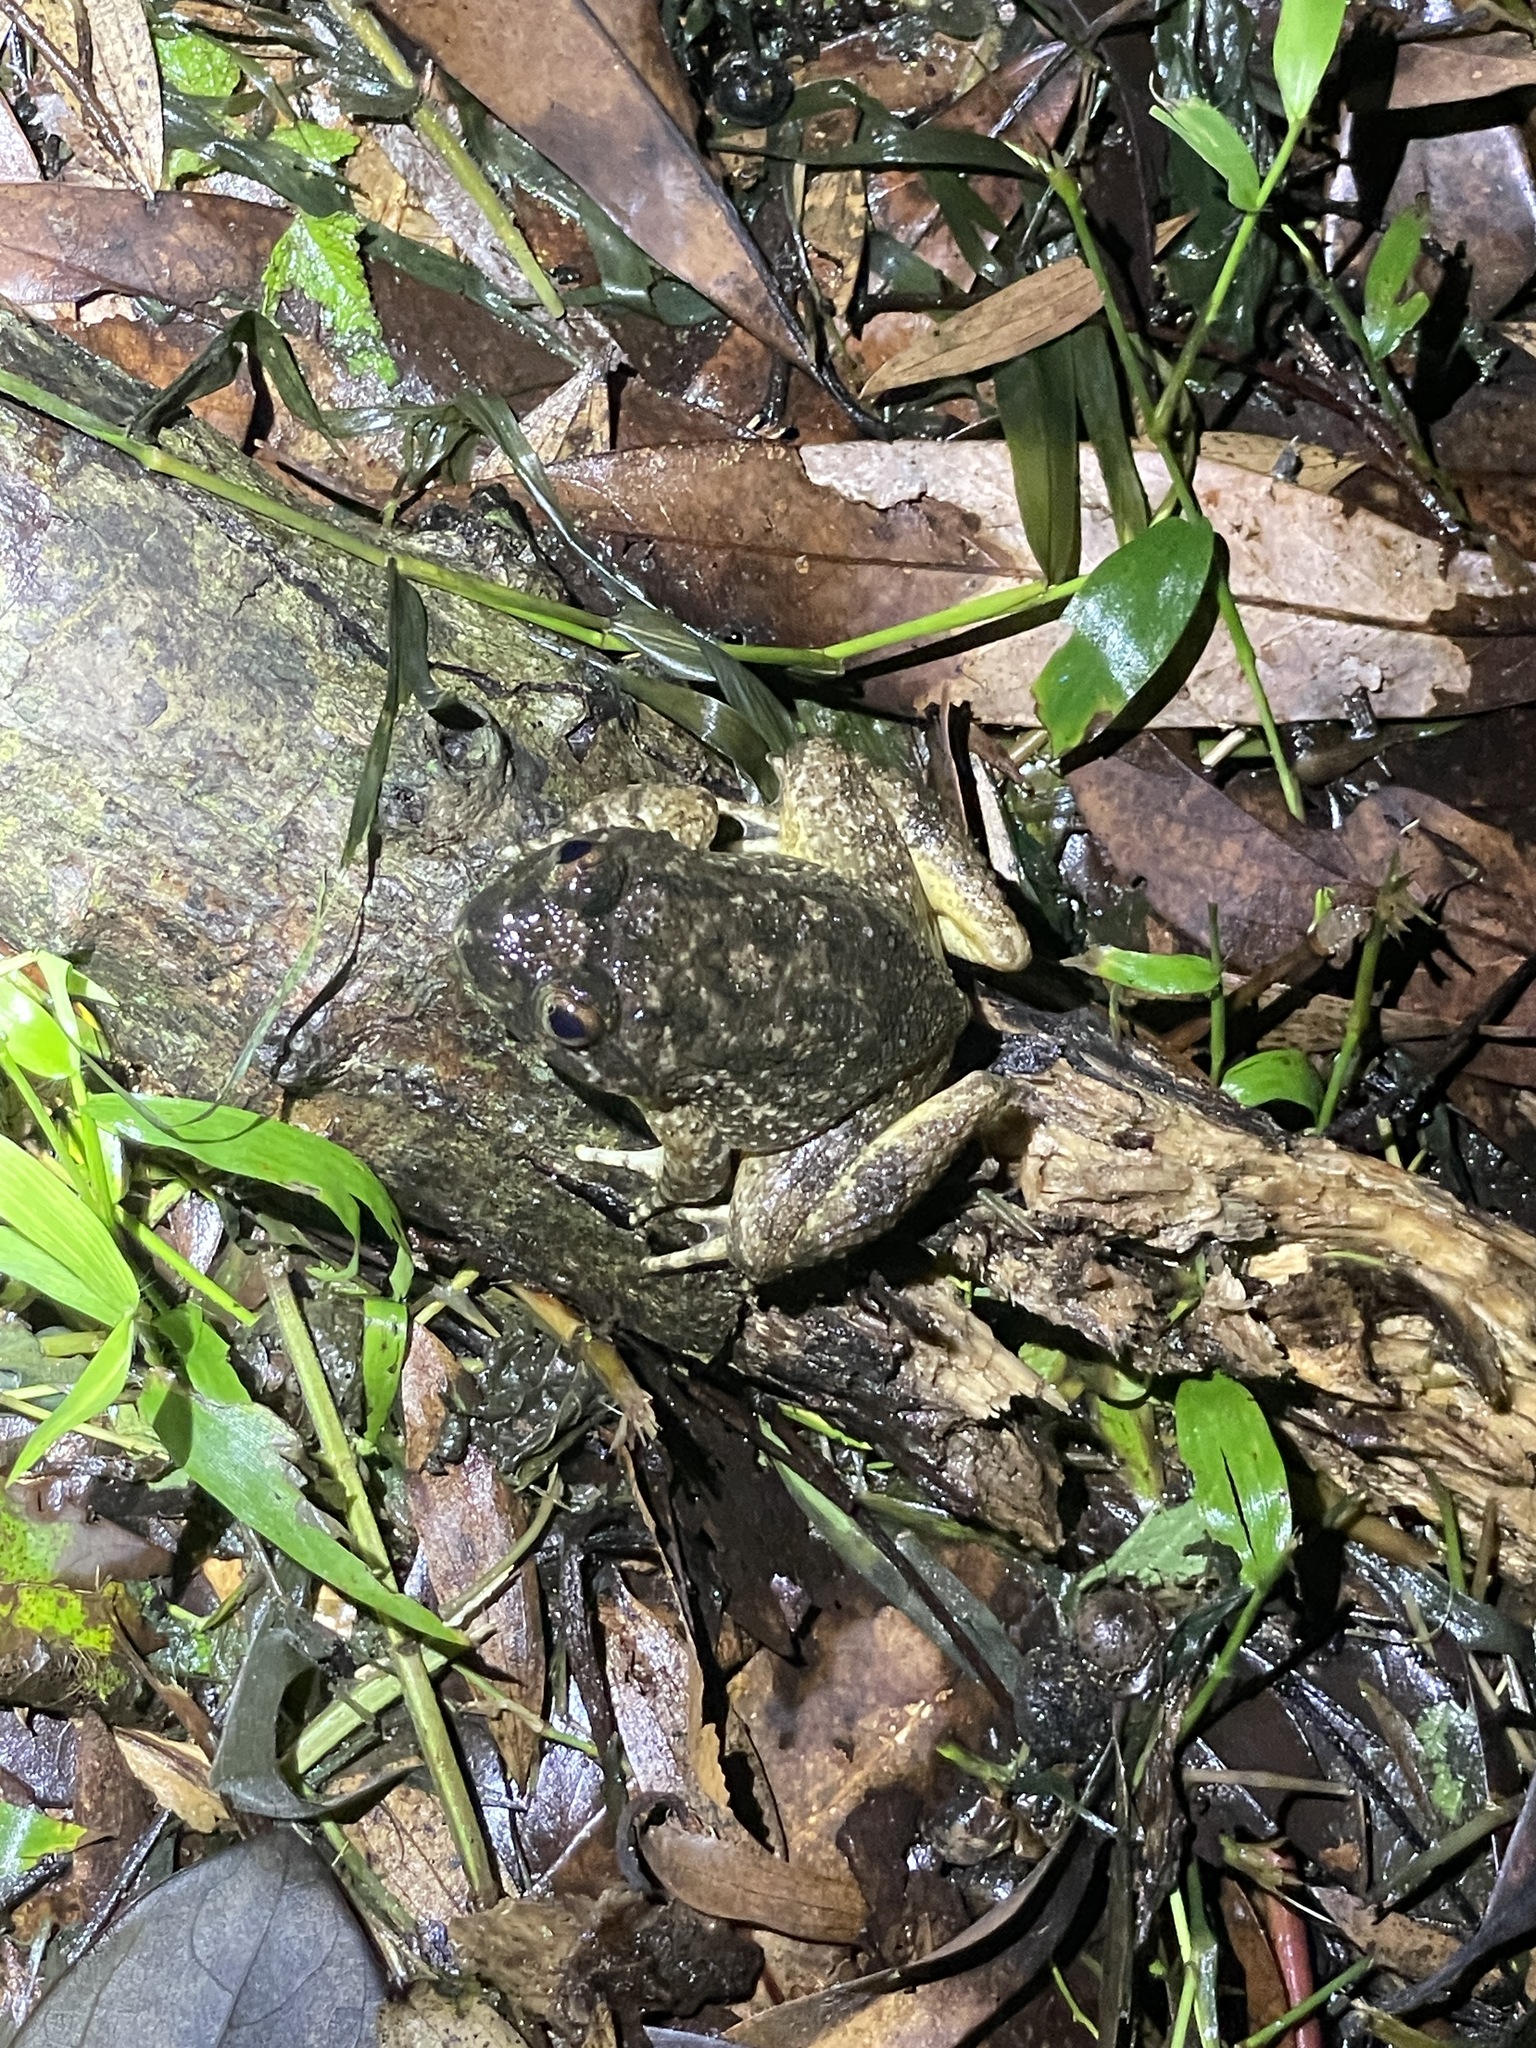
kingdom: Animalia
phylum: Chordata
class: Amphibia
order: Anura
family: Dicroglossidae
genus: Quasipaa
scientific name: Quasipaa exilispinosa
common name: Hong kong paa frog
